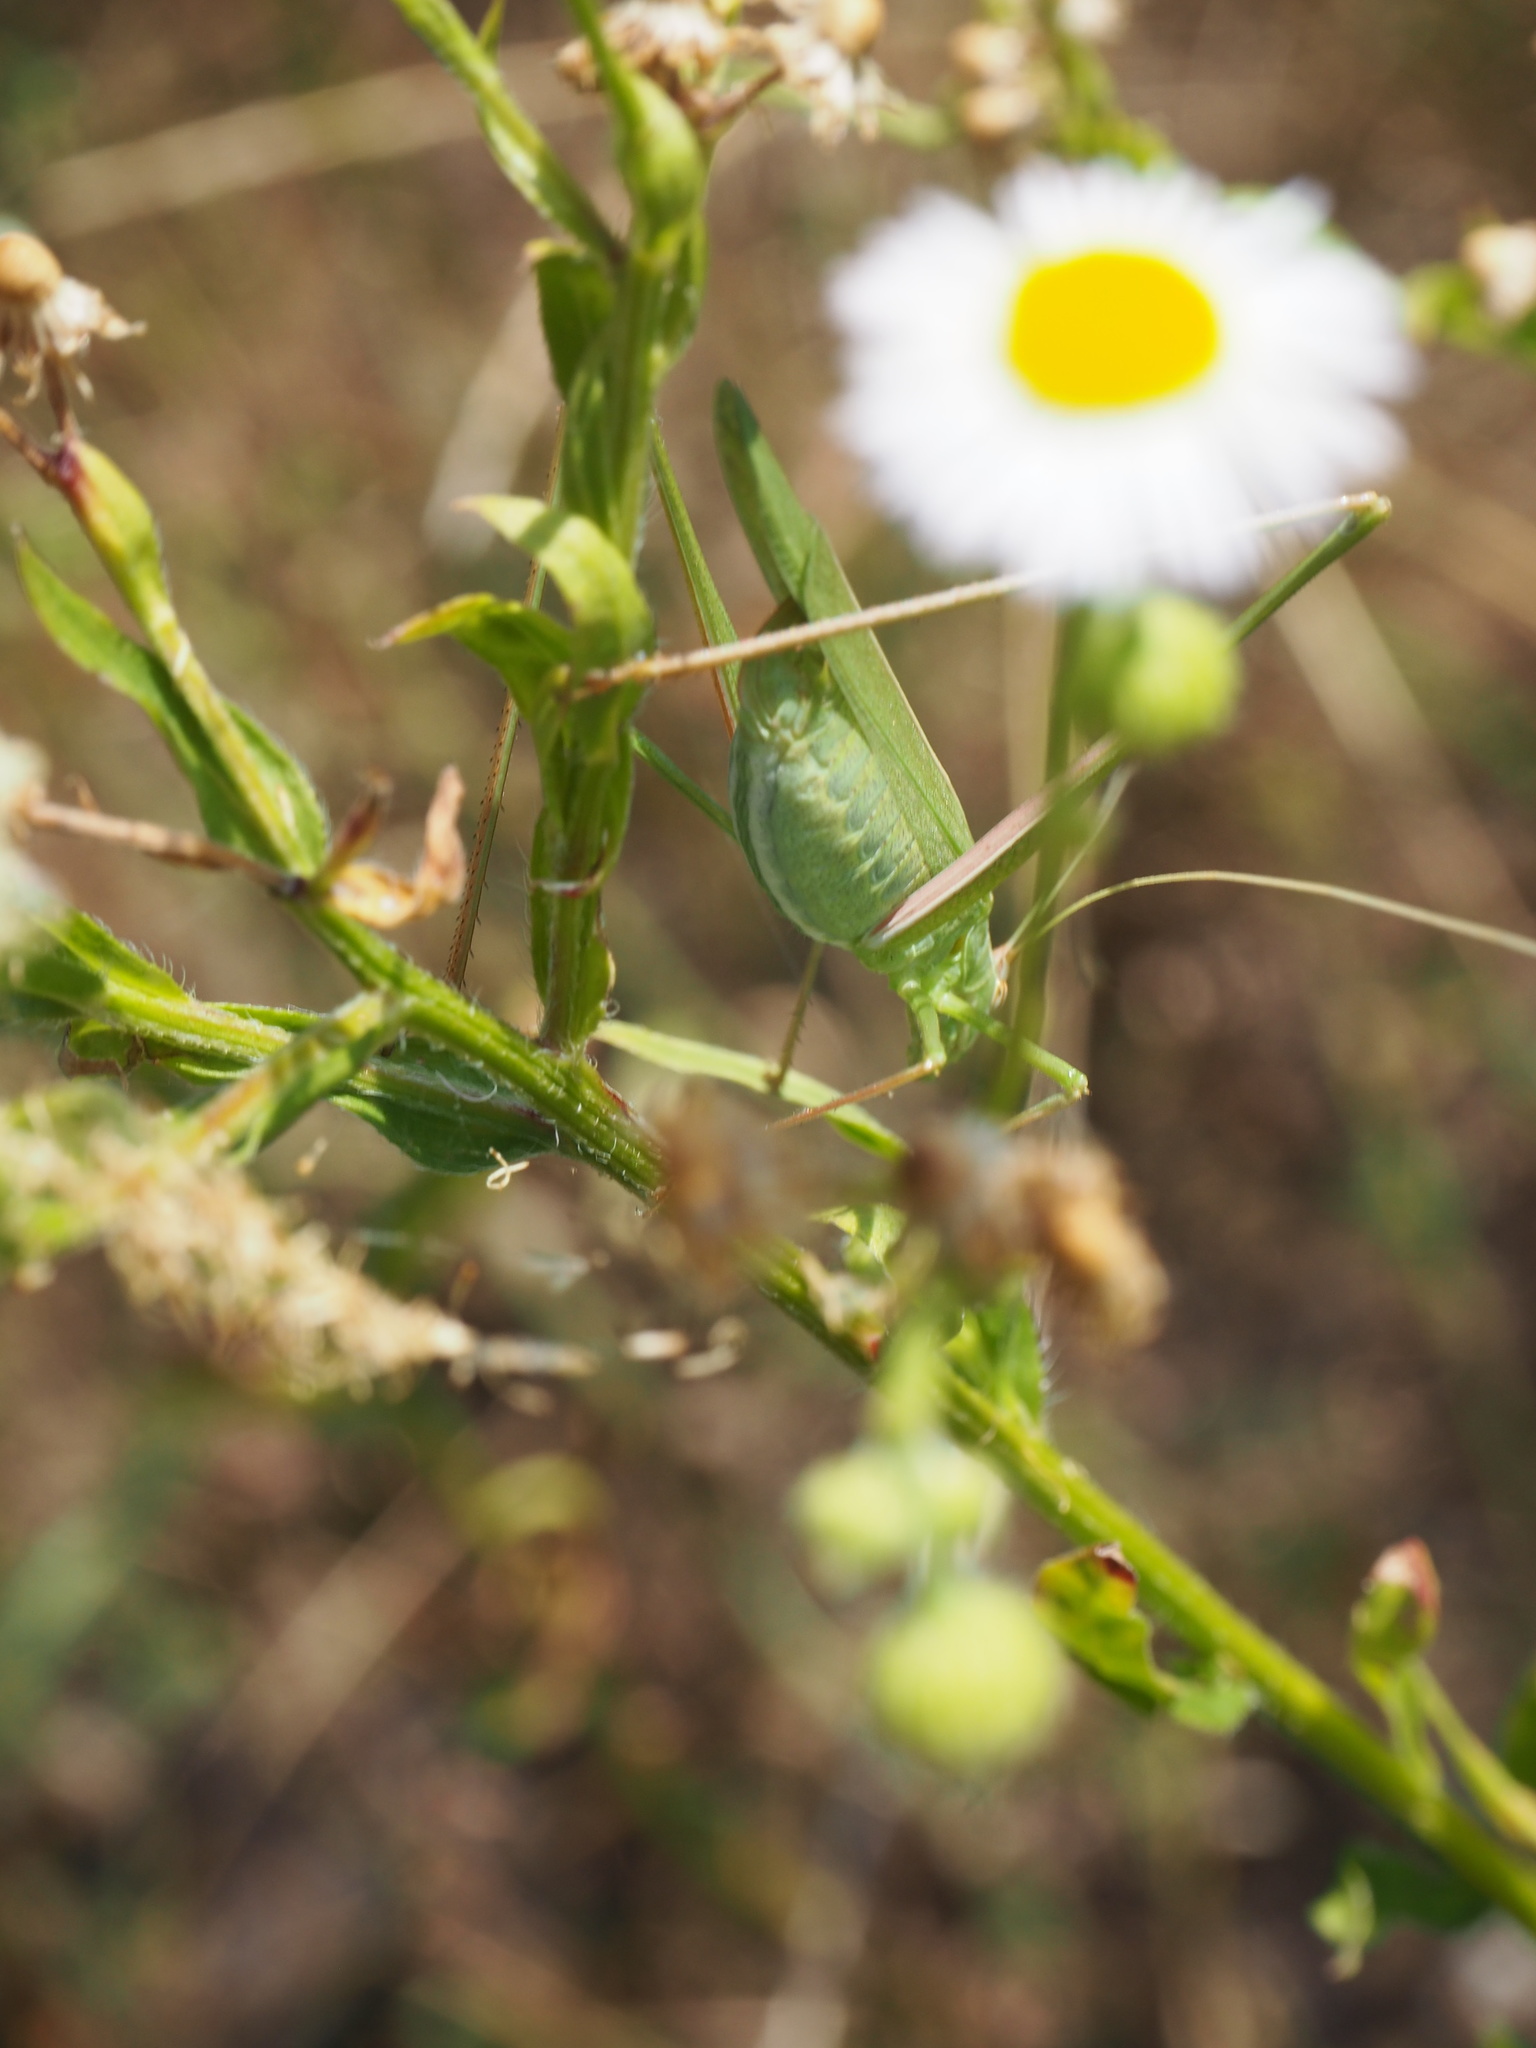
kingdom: Animalia
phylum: Arthropoda
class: Insecta
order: Orthoptera
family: Tettigoniidae
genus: Tylopsis
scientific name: Tylopsis lilifolia
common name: Lily bush-cricket
